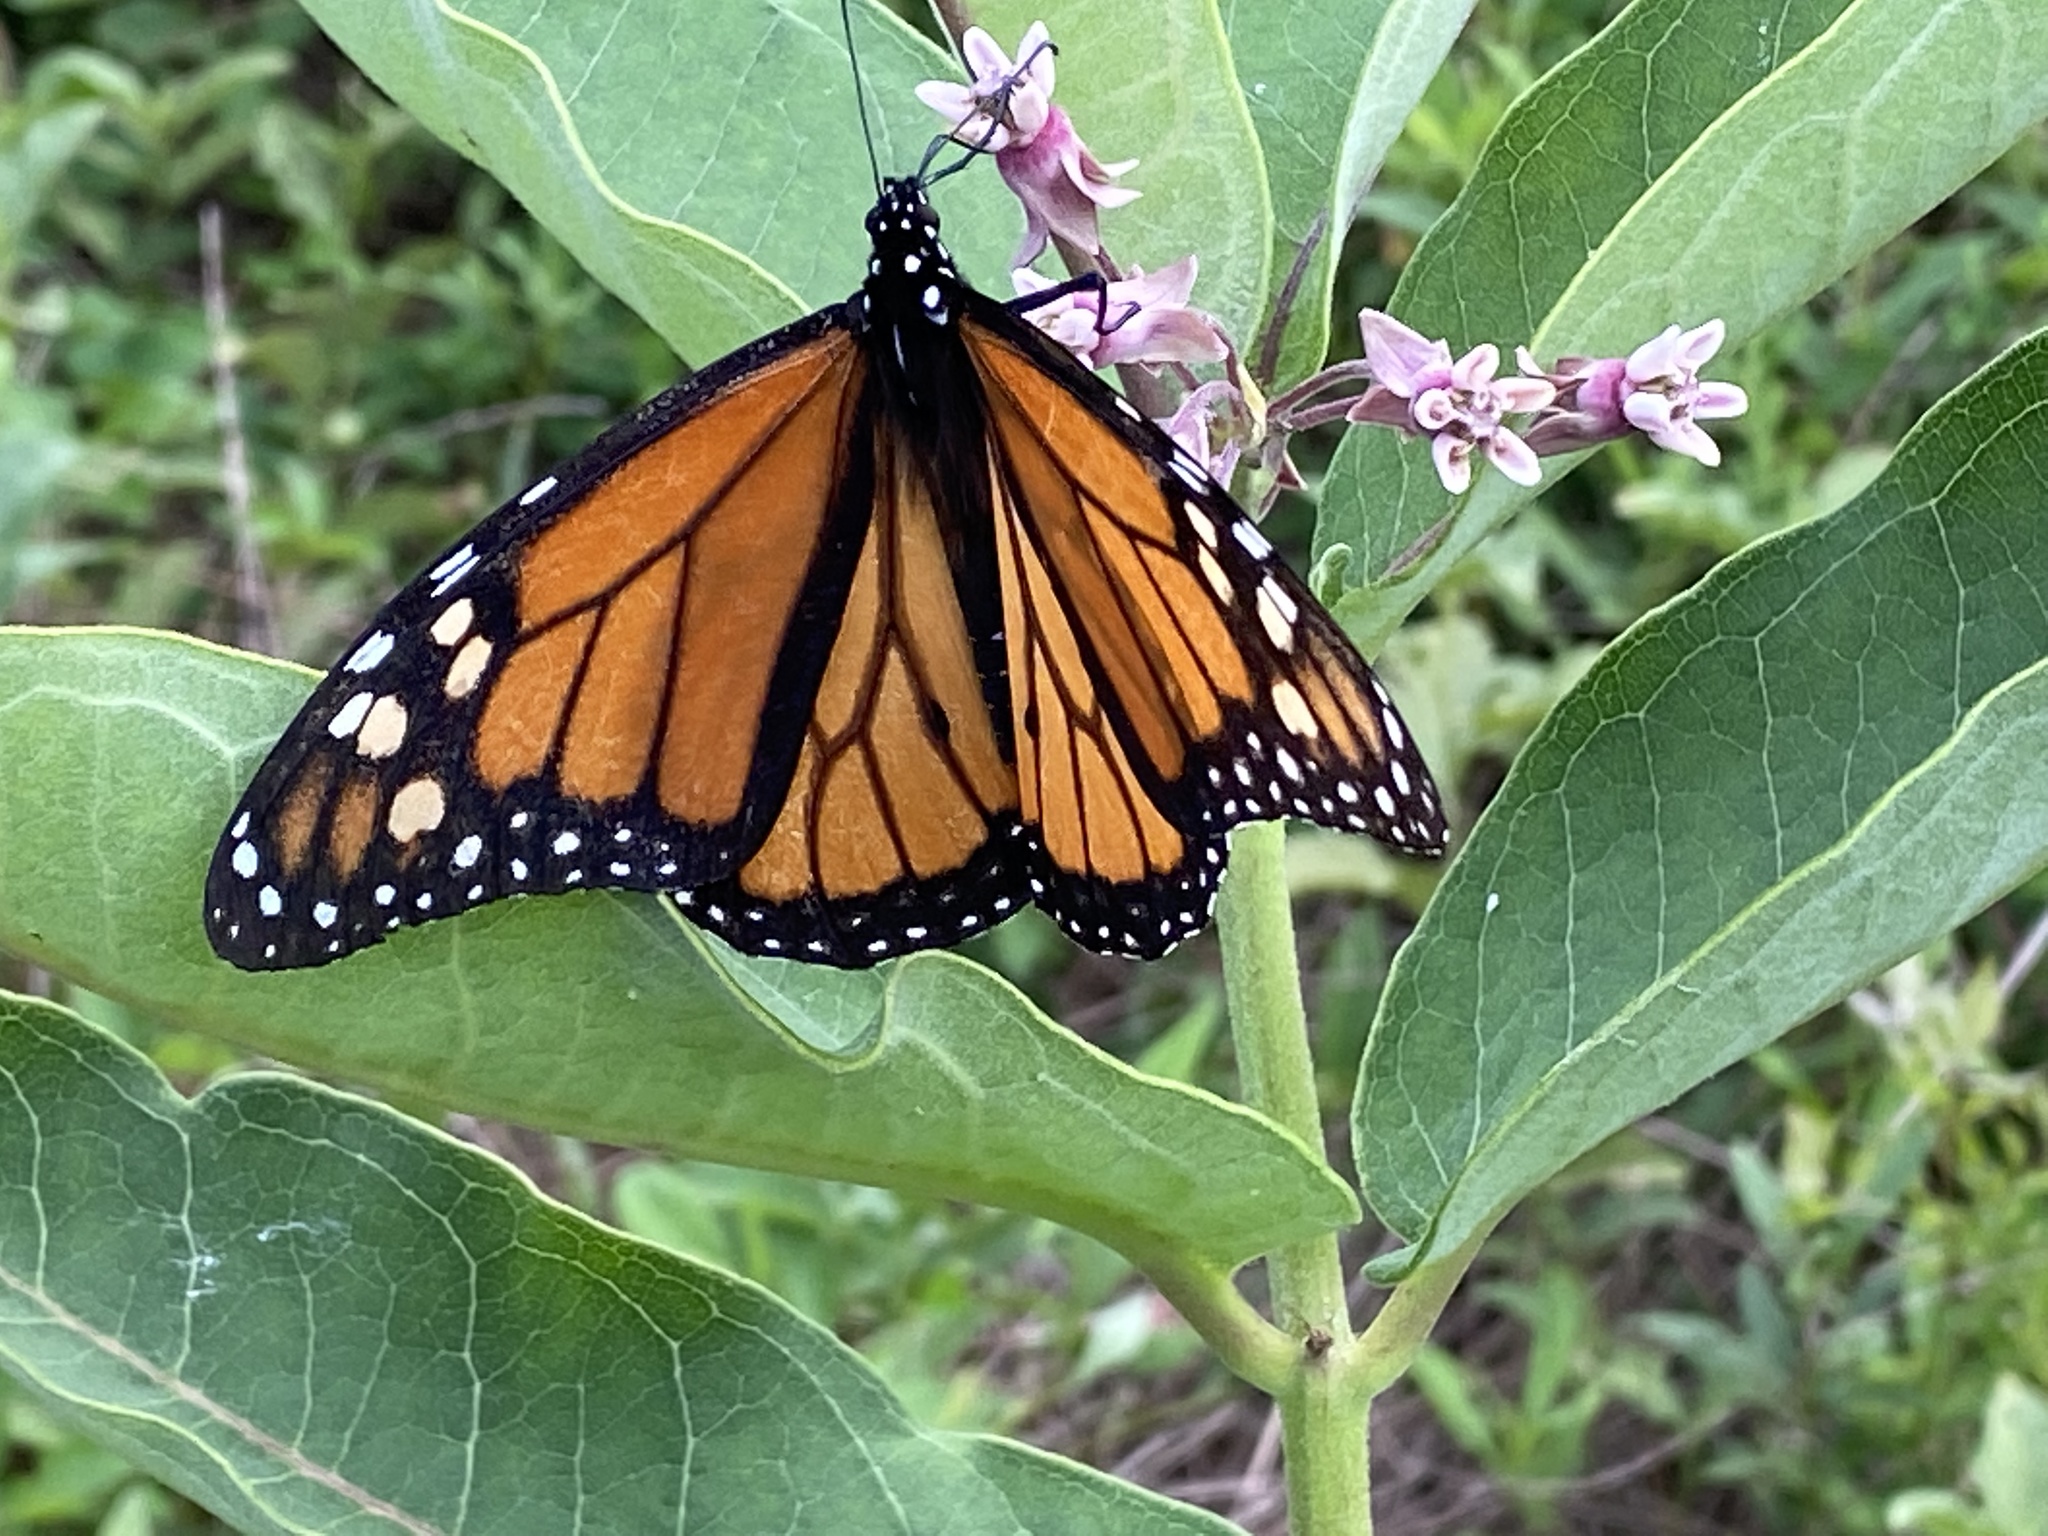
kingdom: Animalia
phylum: Arthropoda
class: Insecta
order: Lepidoptera
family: Nymphalidae
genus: Danaus
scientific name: Danaus plexippus
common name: Monarch
